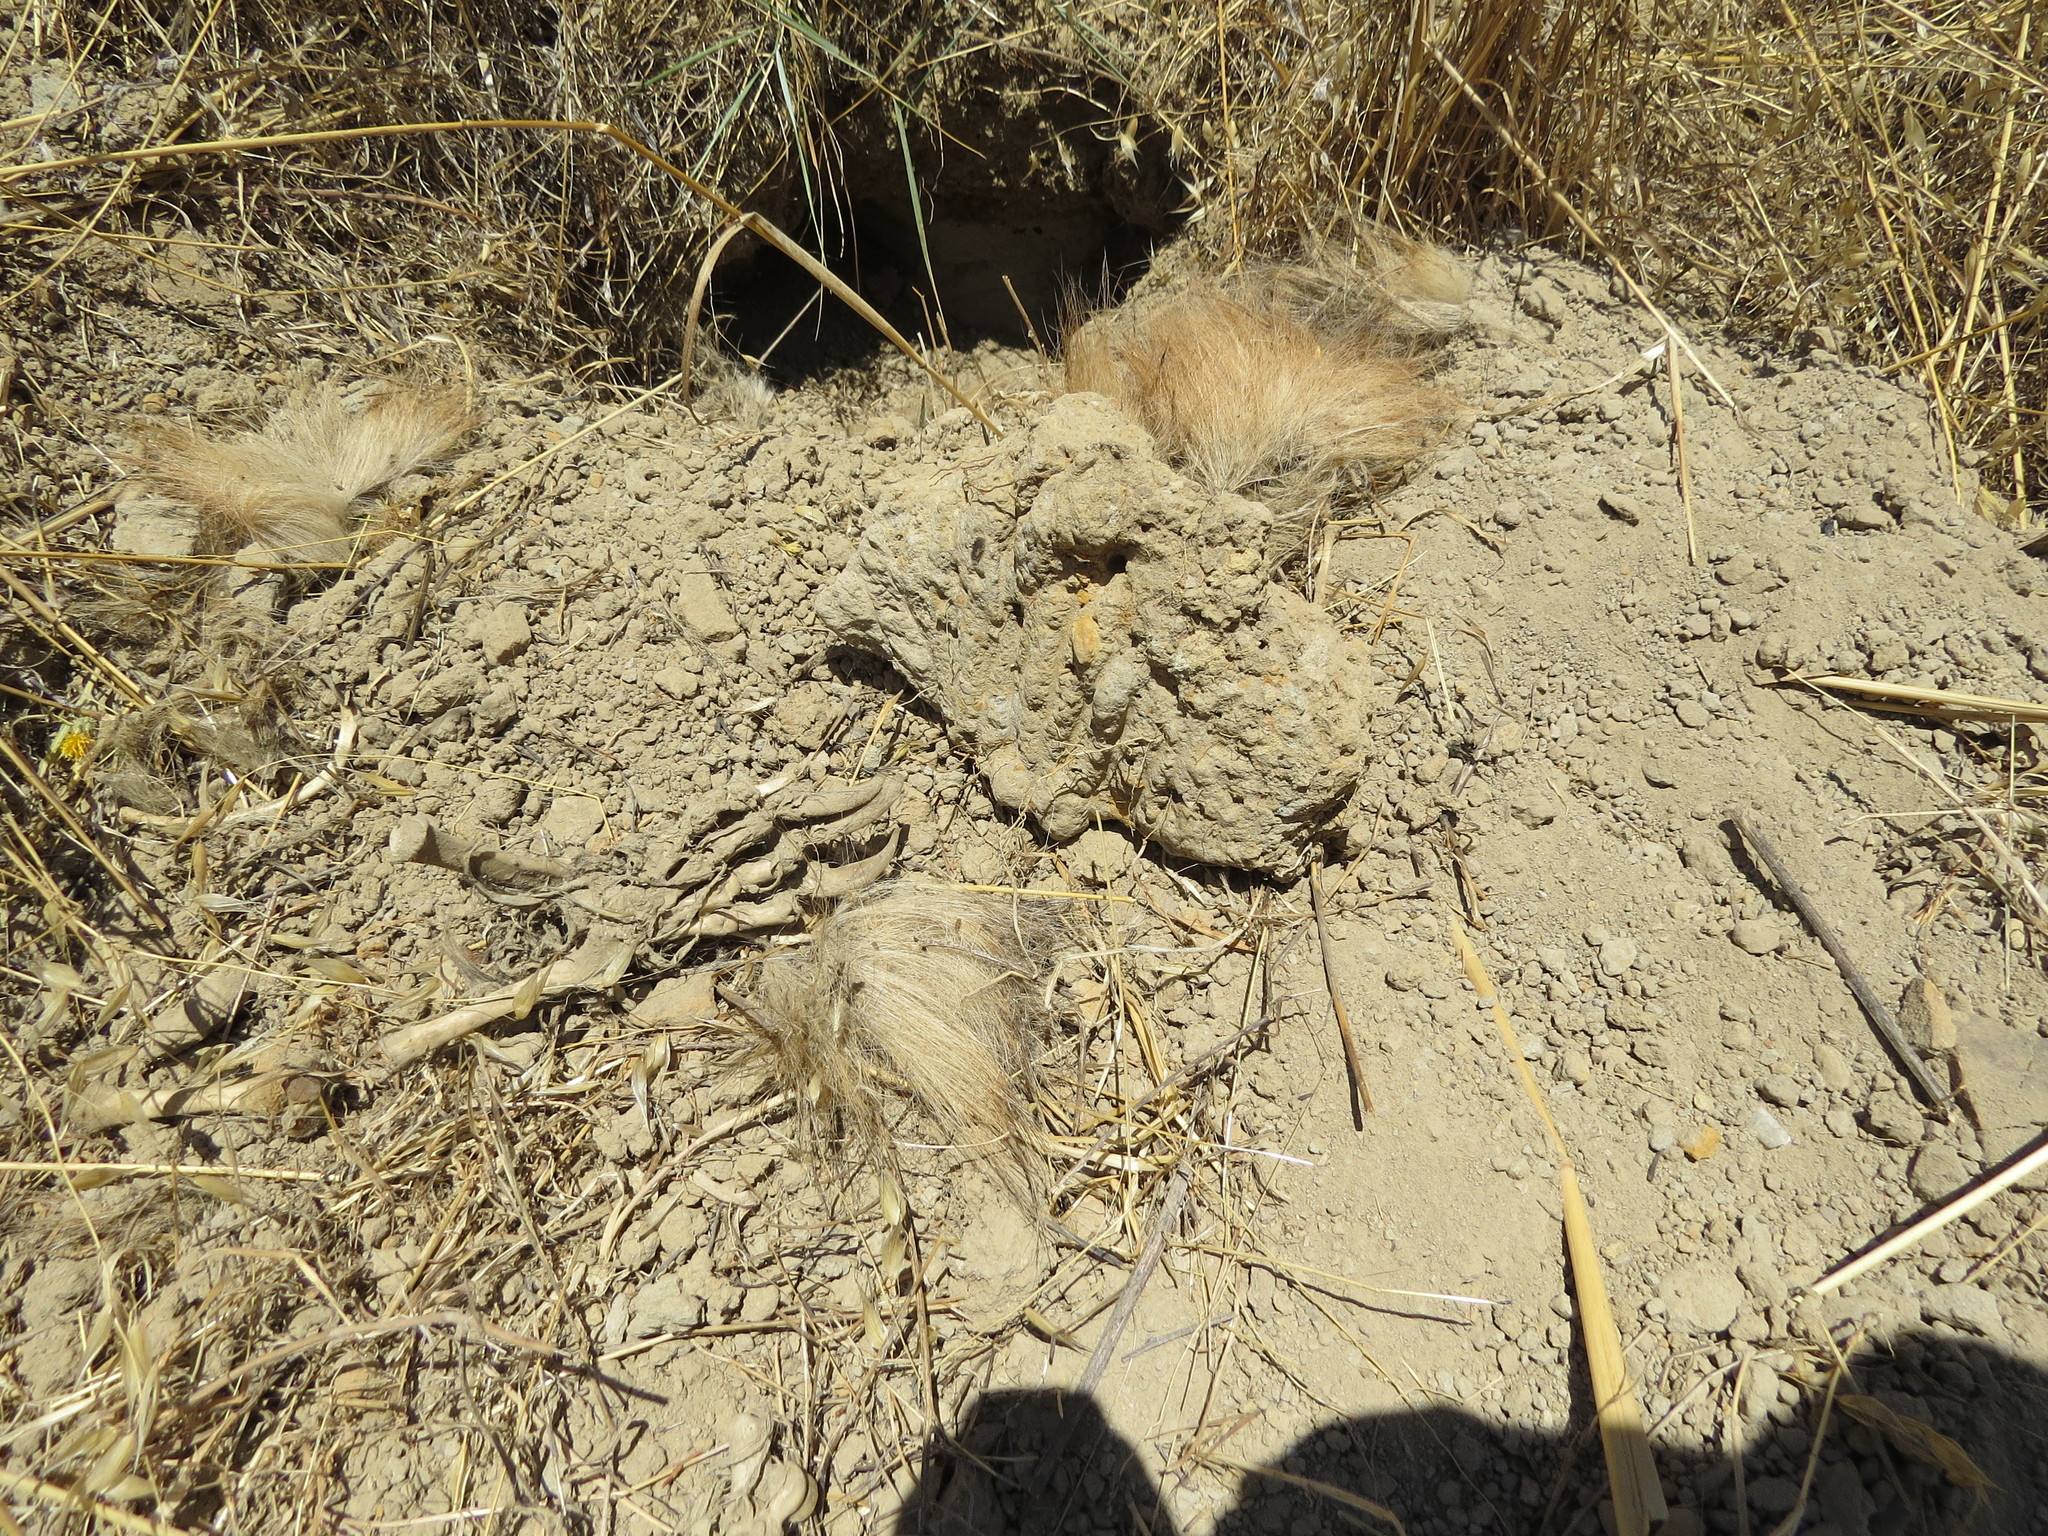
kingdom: Animalia
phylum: Chordata
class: Mammalia
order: Carnivora
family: Mustelidae
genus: Taxidea
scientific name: Taxidea taxus
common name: American badger
